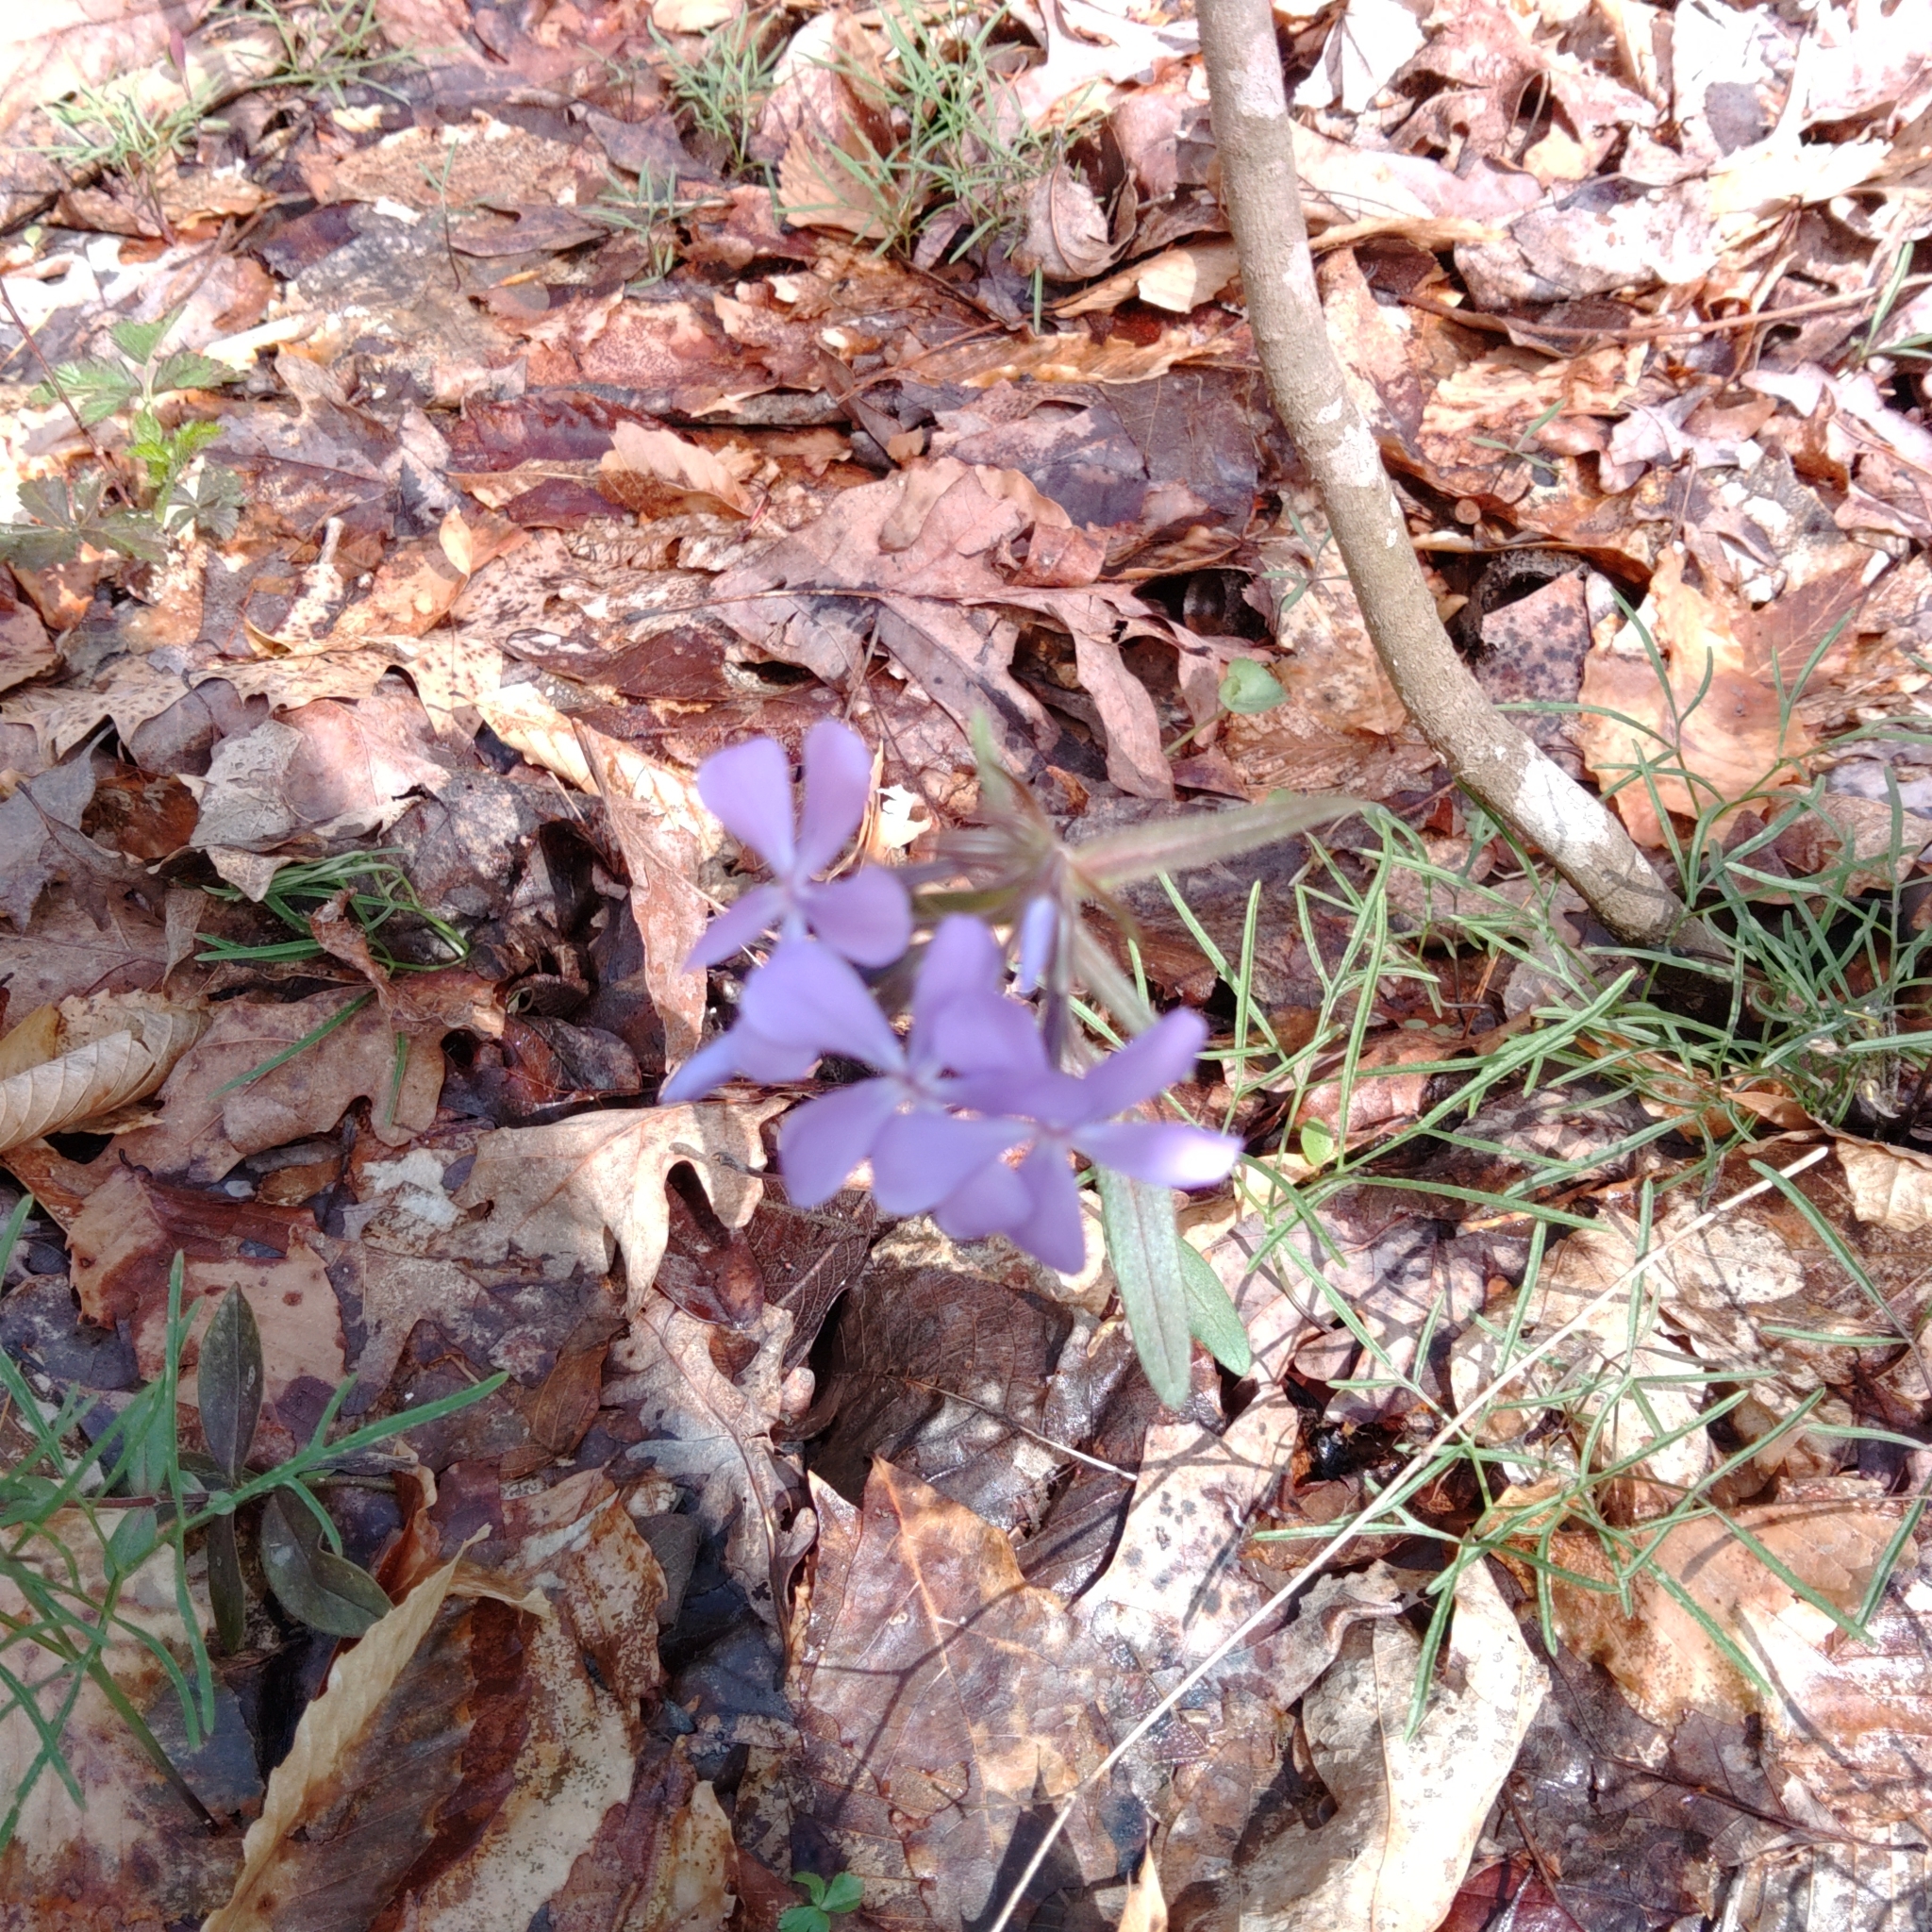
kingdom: Plantae
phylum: Tracheophyta
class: Magnoliopsida
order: Ericales
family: Polemoniaceae
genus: Phlox
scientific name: Phlox divaricata
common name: Blue phlox
